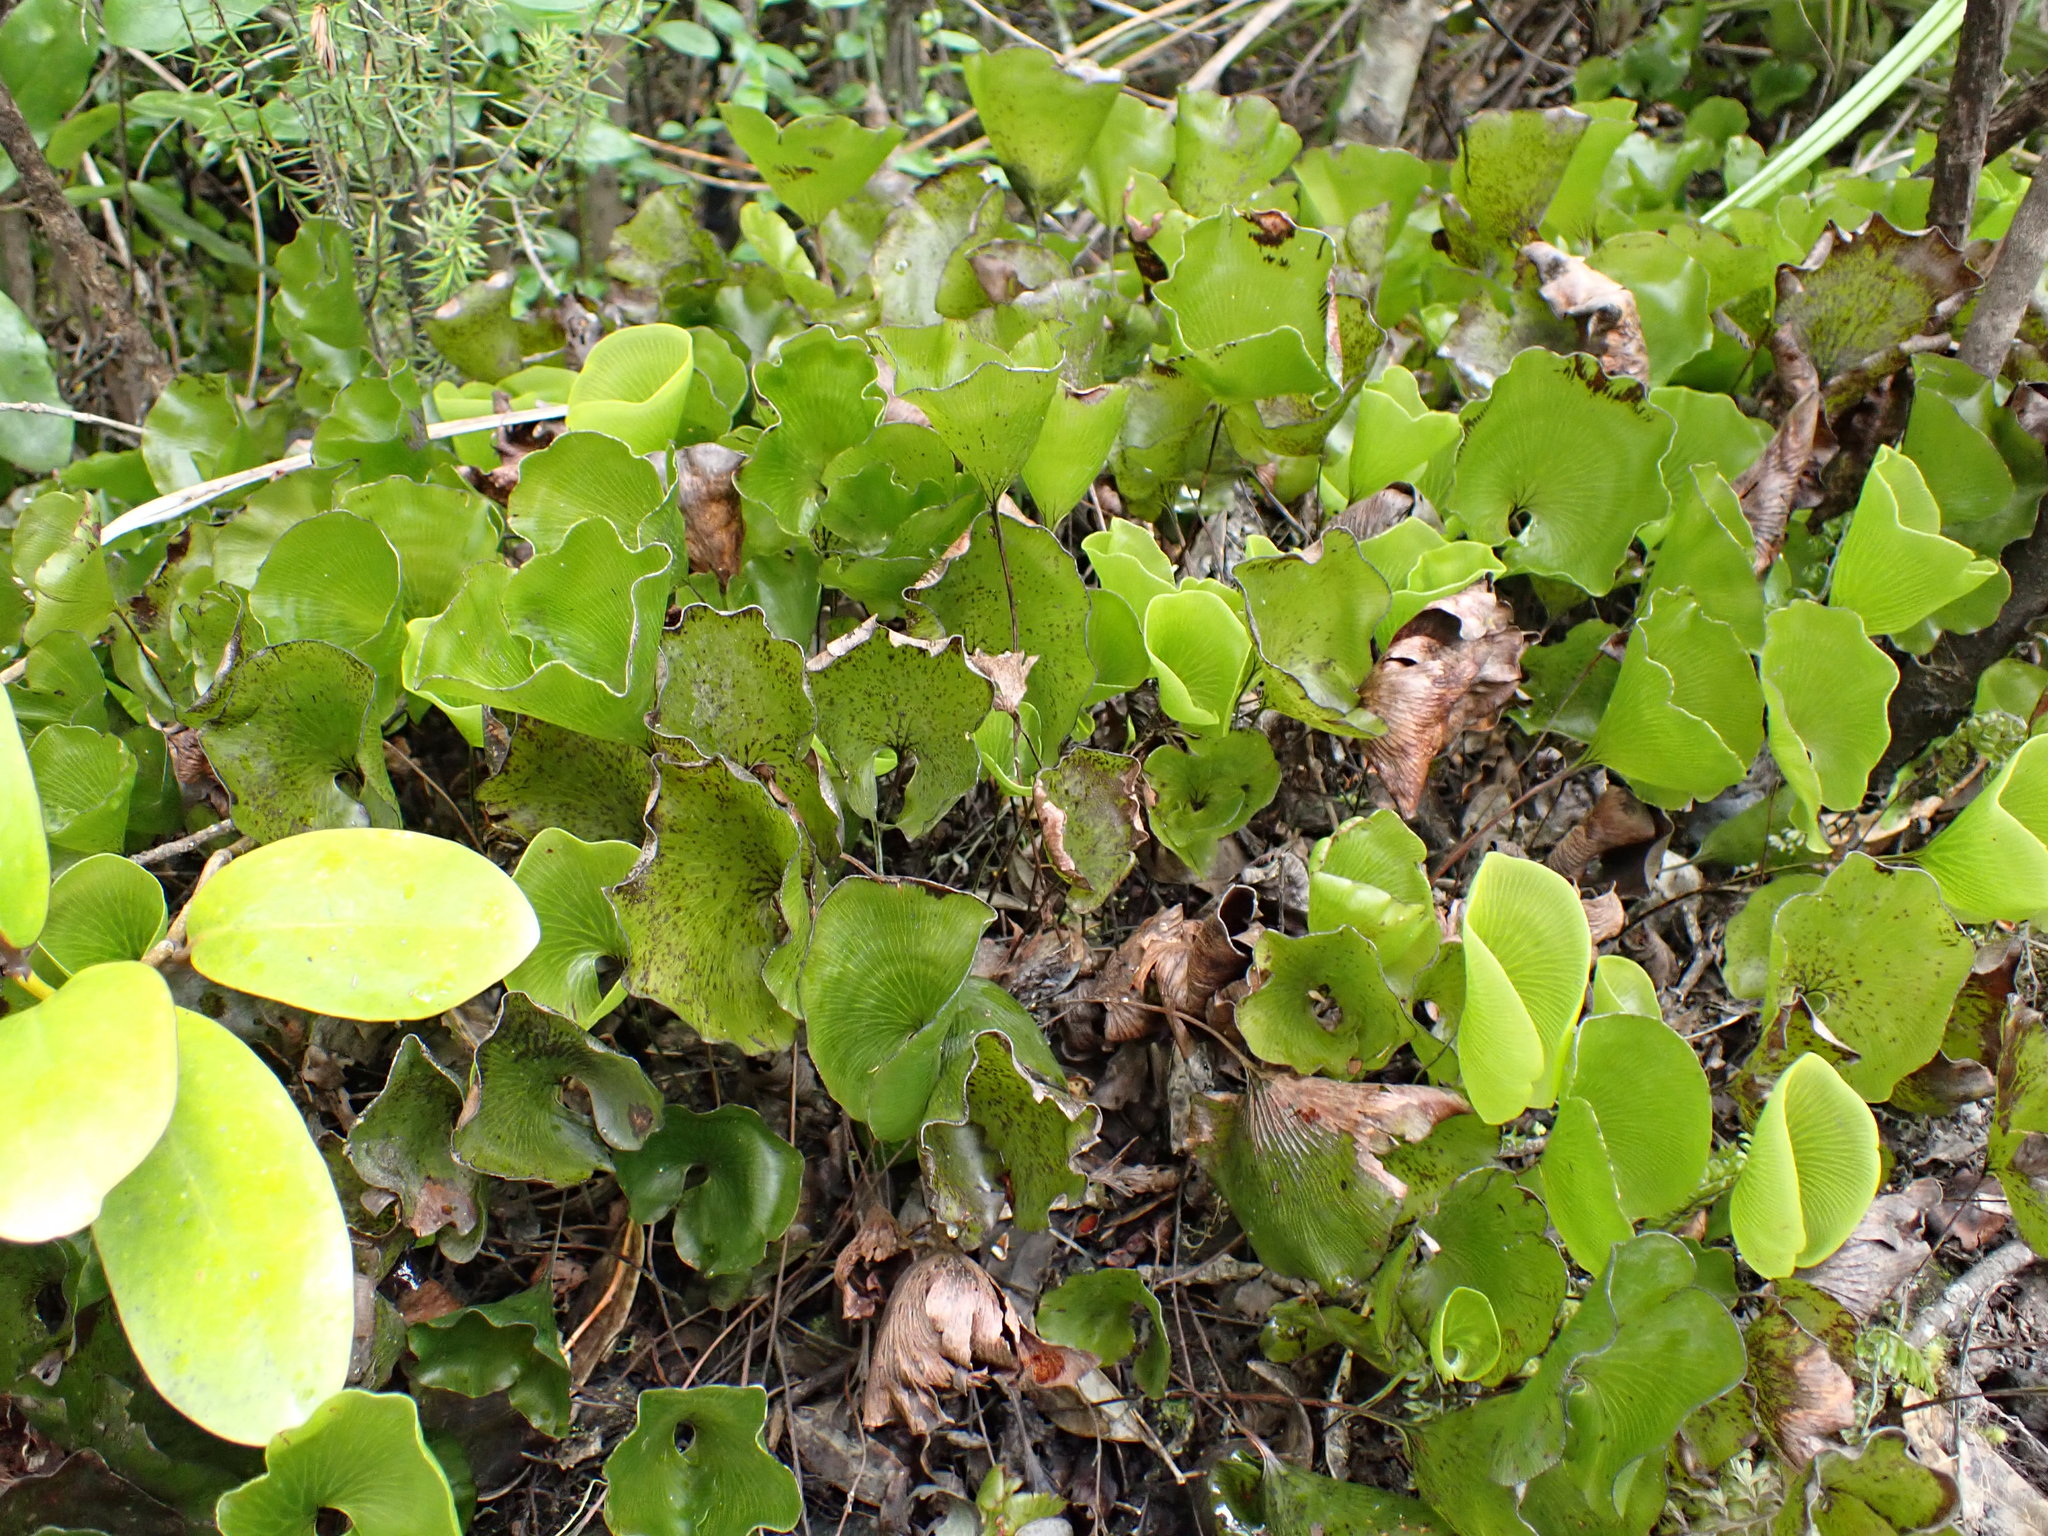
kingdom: Plantae
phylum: Tracheophyta
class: Polypodiopsida
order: Hymenophyllales
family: Hymenophyllaceae
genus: Hymenophyllum
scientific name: Hymenophyllum nephrophyllum
